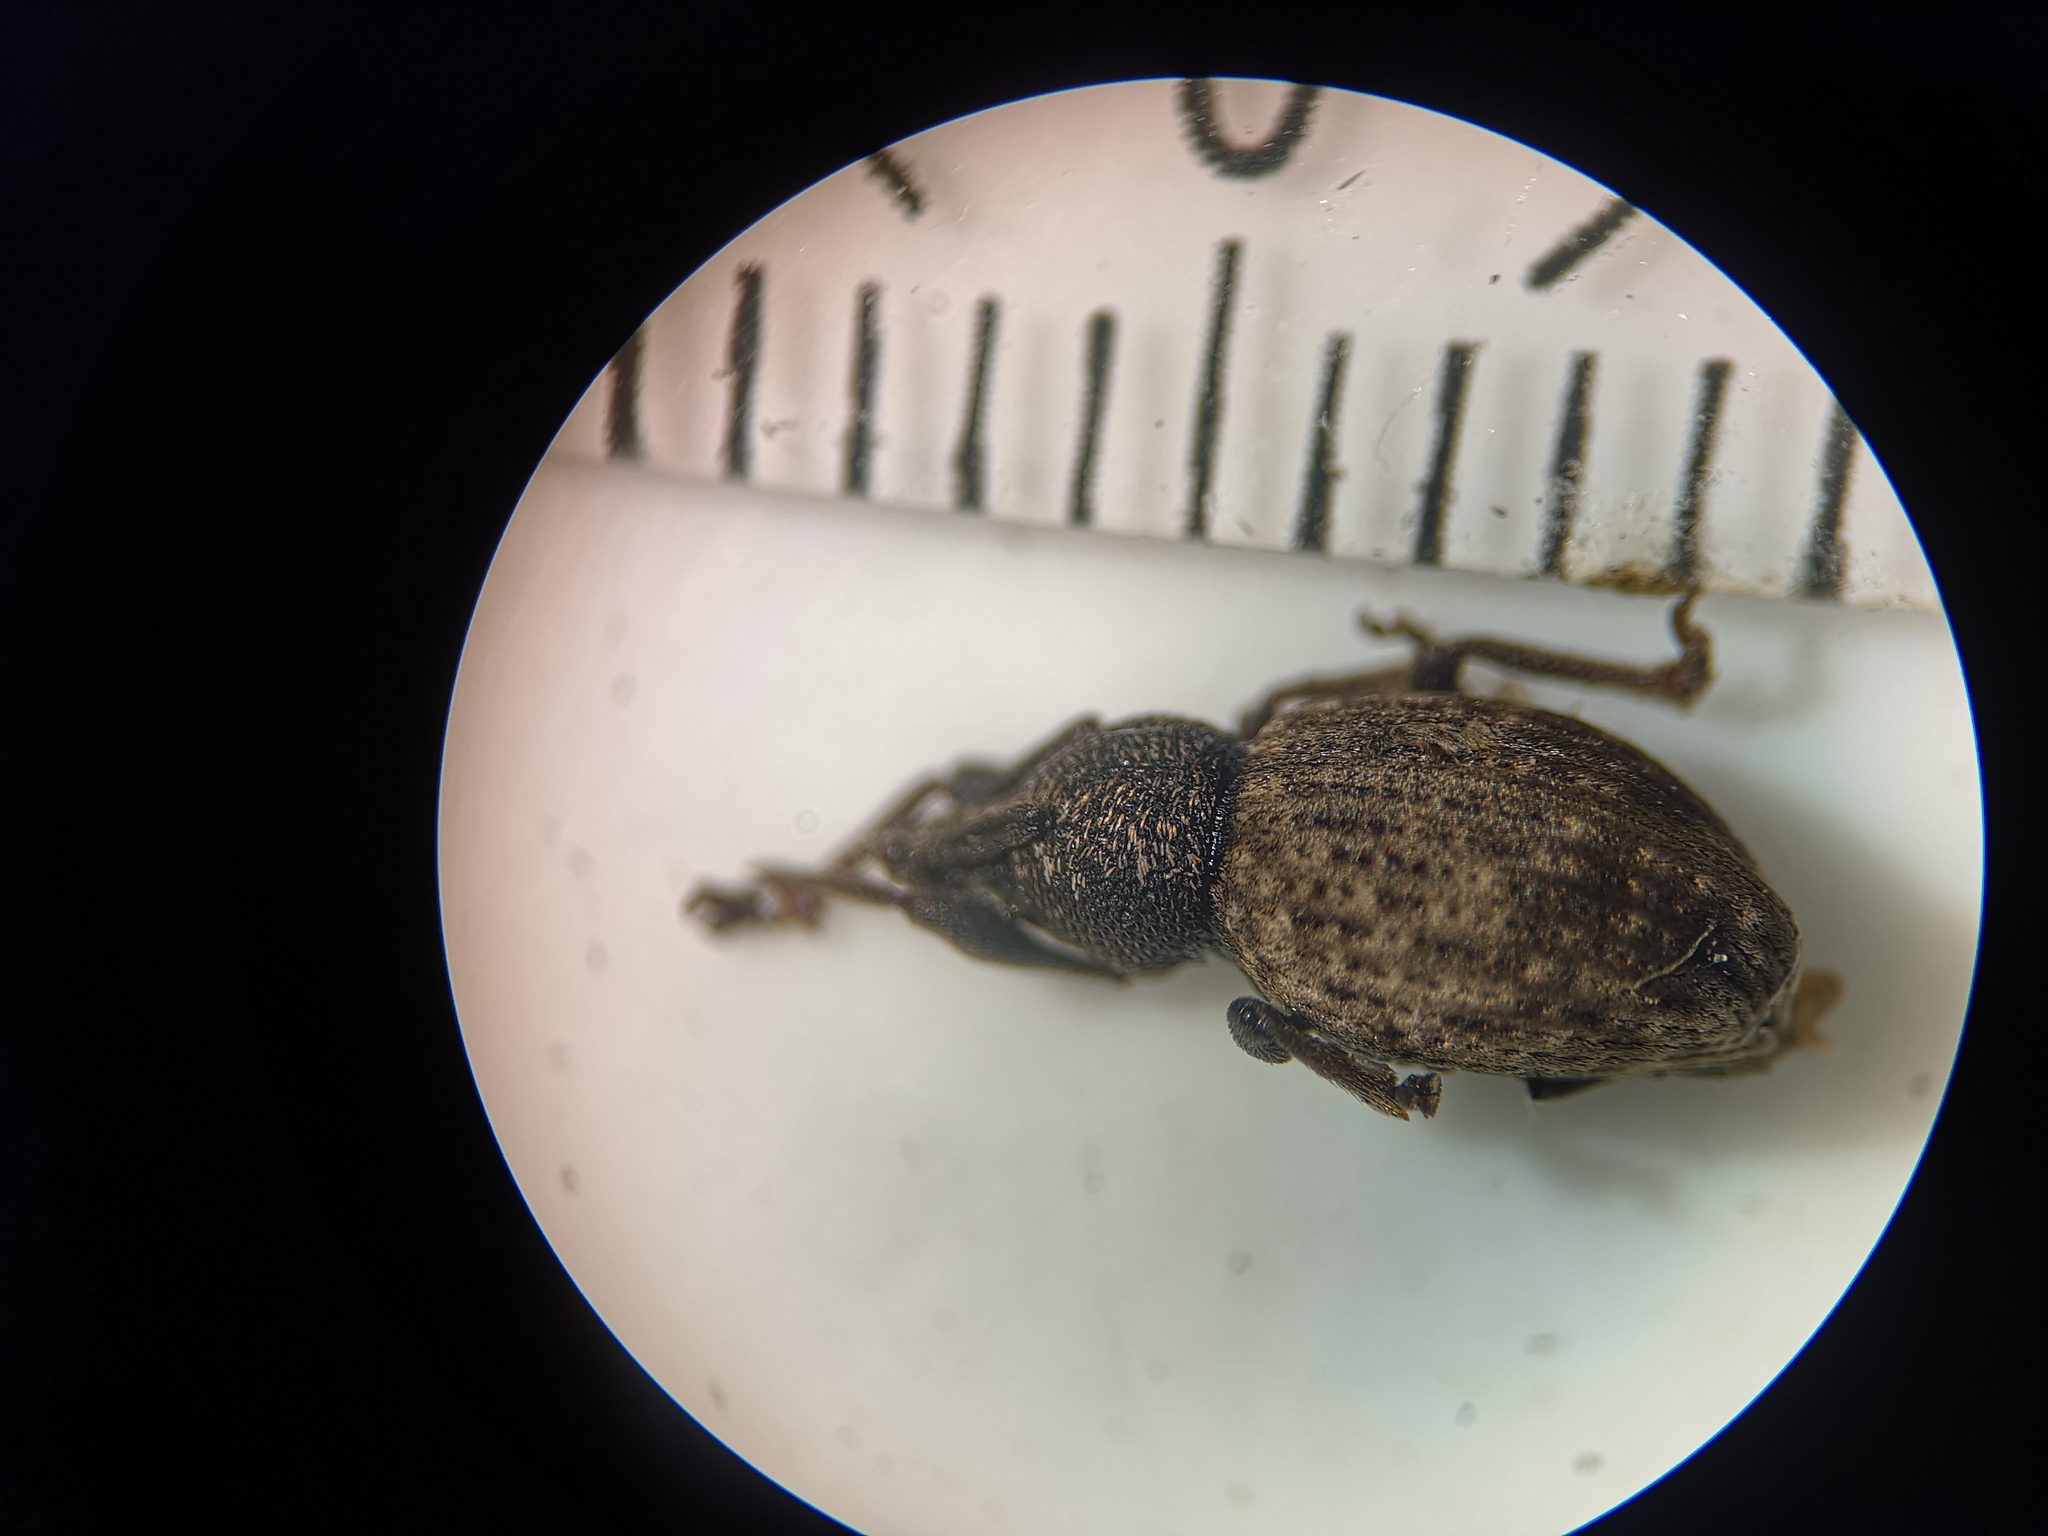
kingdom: Animalia
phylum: Arthropoda
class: Insecta
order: Coleoptera
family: Curculionidae
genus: Otiorhynchus
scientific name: Otiorhynchus raucus
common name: Weevil
